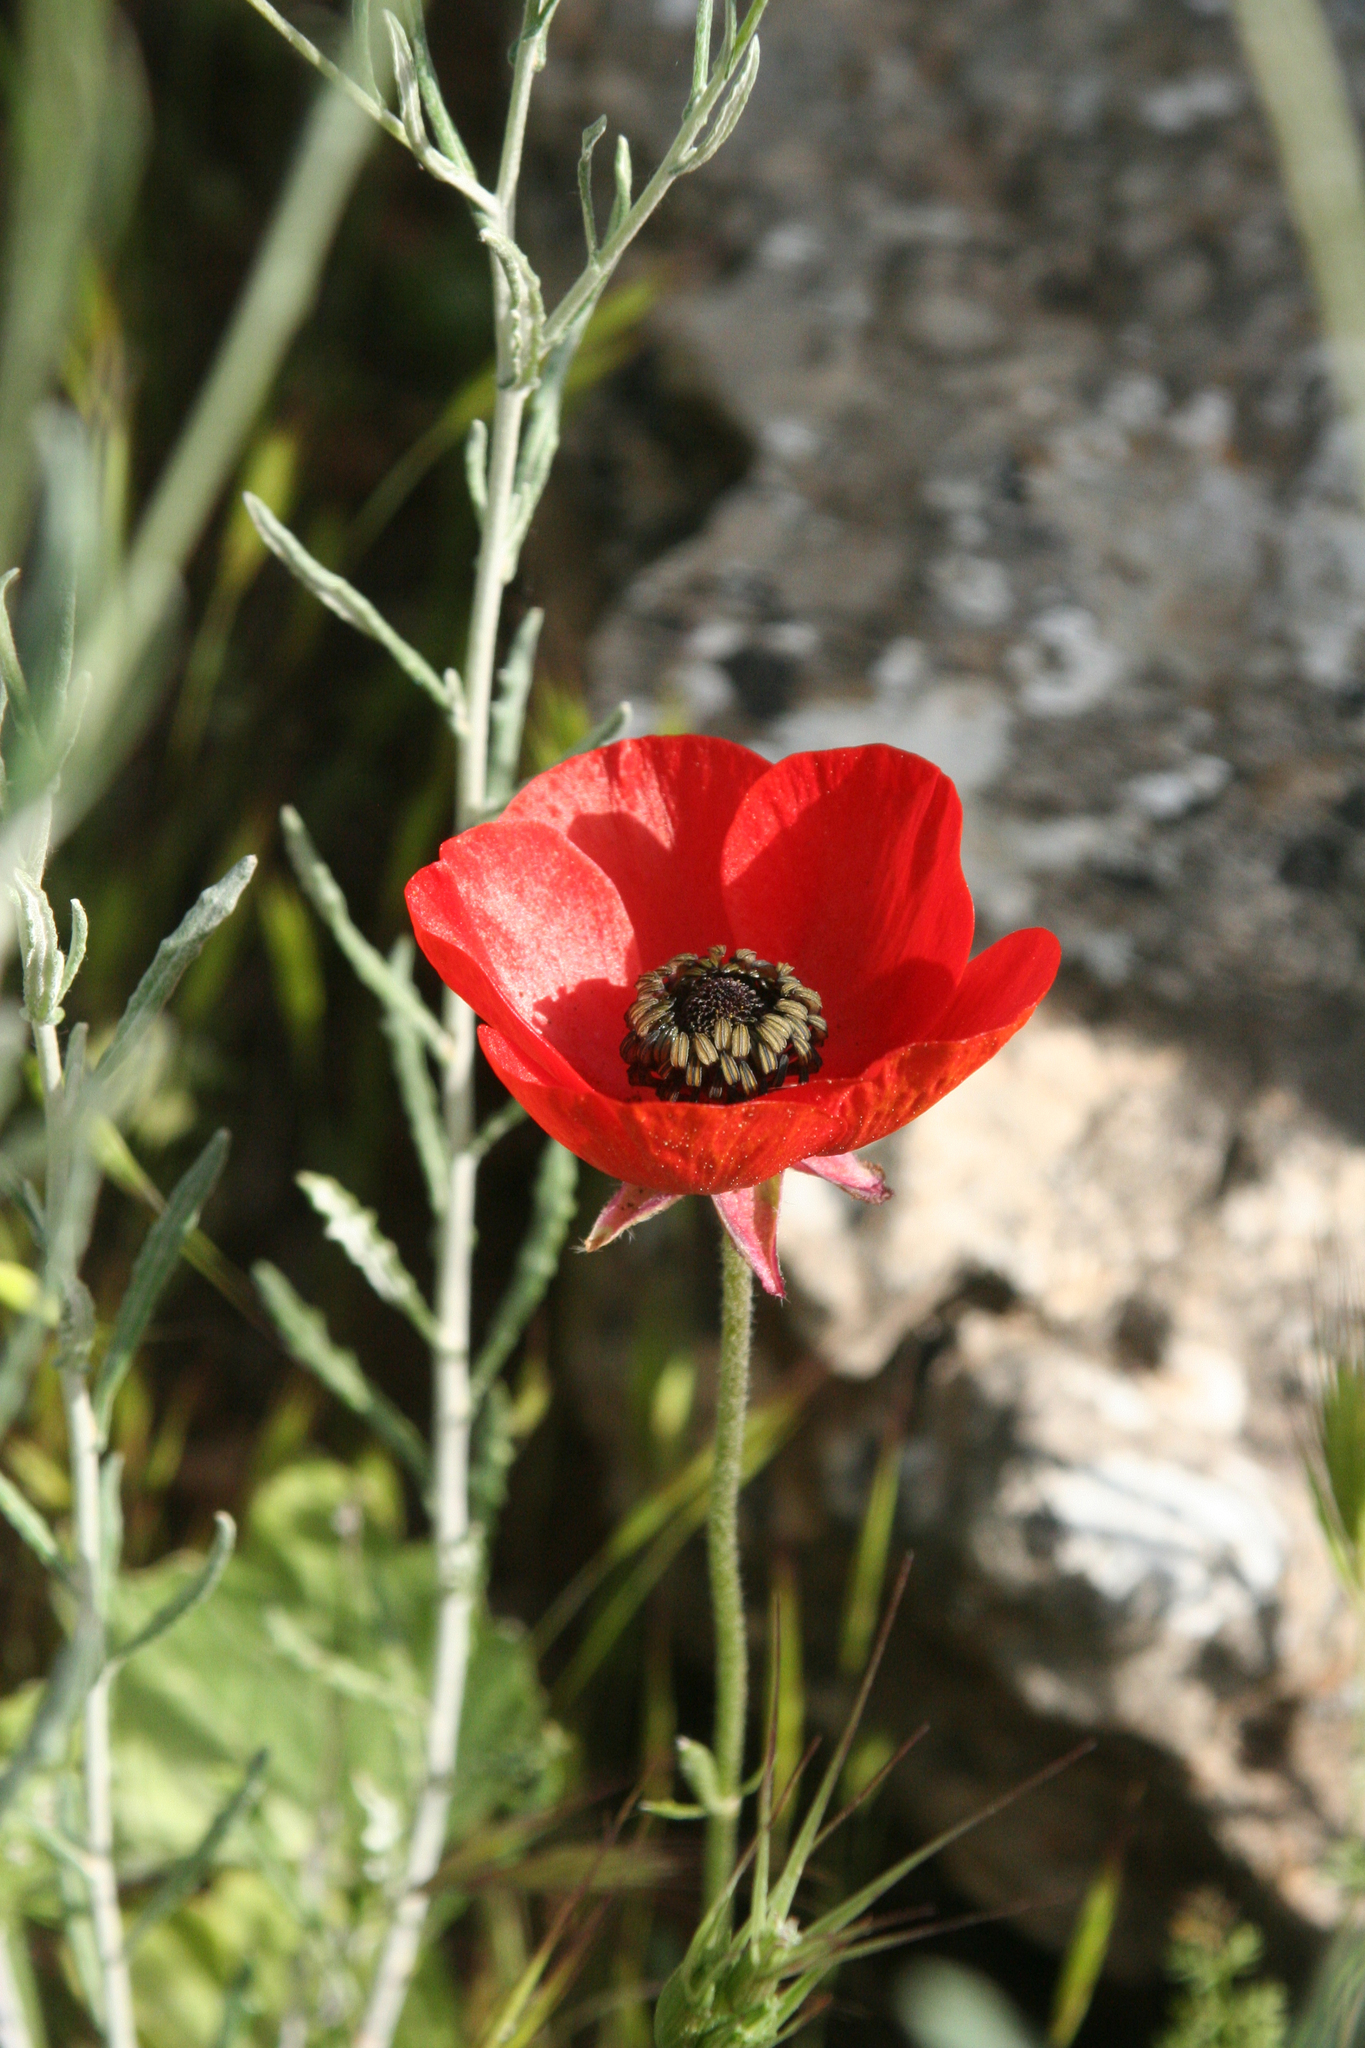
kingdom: Plantae
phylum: Tracheophyta
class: Magnoliopsida
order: Ranunculales
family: Ranunculaceae
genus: Ranunculus
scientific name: Ranunculus asiaticus
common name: Persian buttercup
